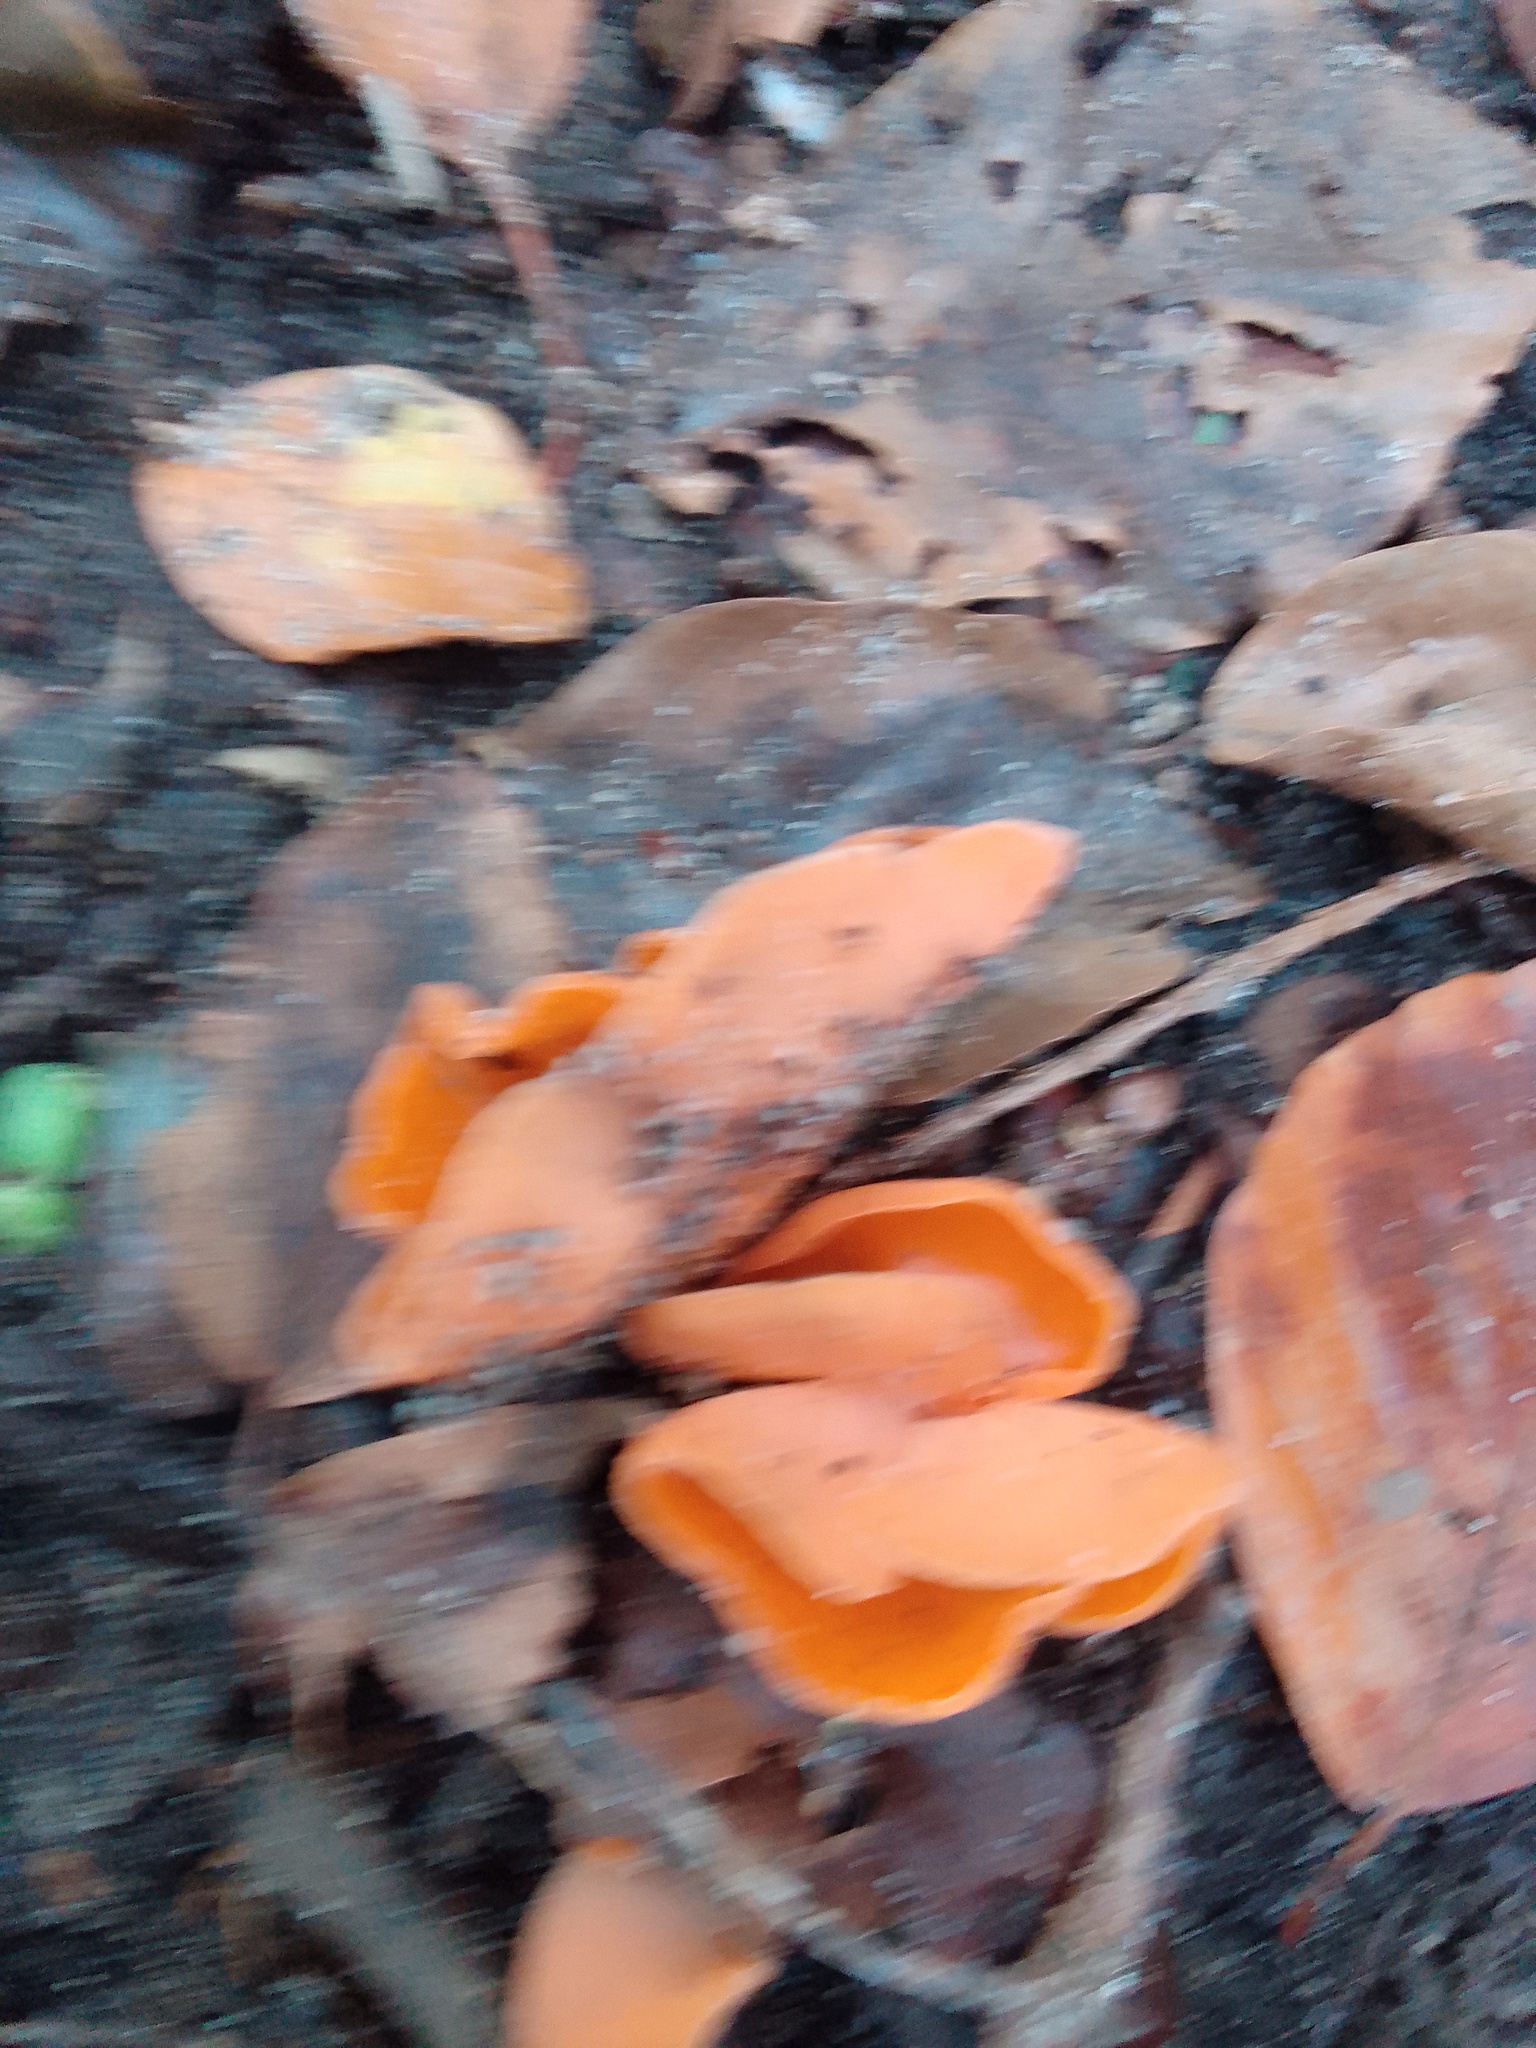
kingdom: Fungi
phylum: Ascomycota
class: Pezizomycetes
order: Pezizales
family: Pyronemataceae
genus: Aleuria
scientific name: Aleuria aurantia
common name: Orange peel fungus
